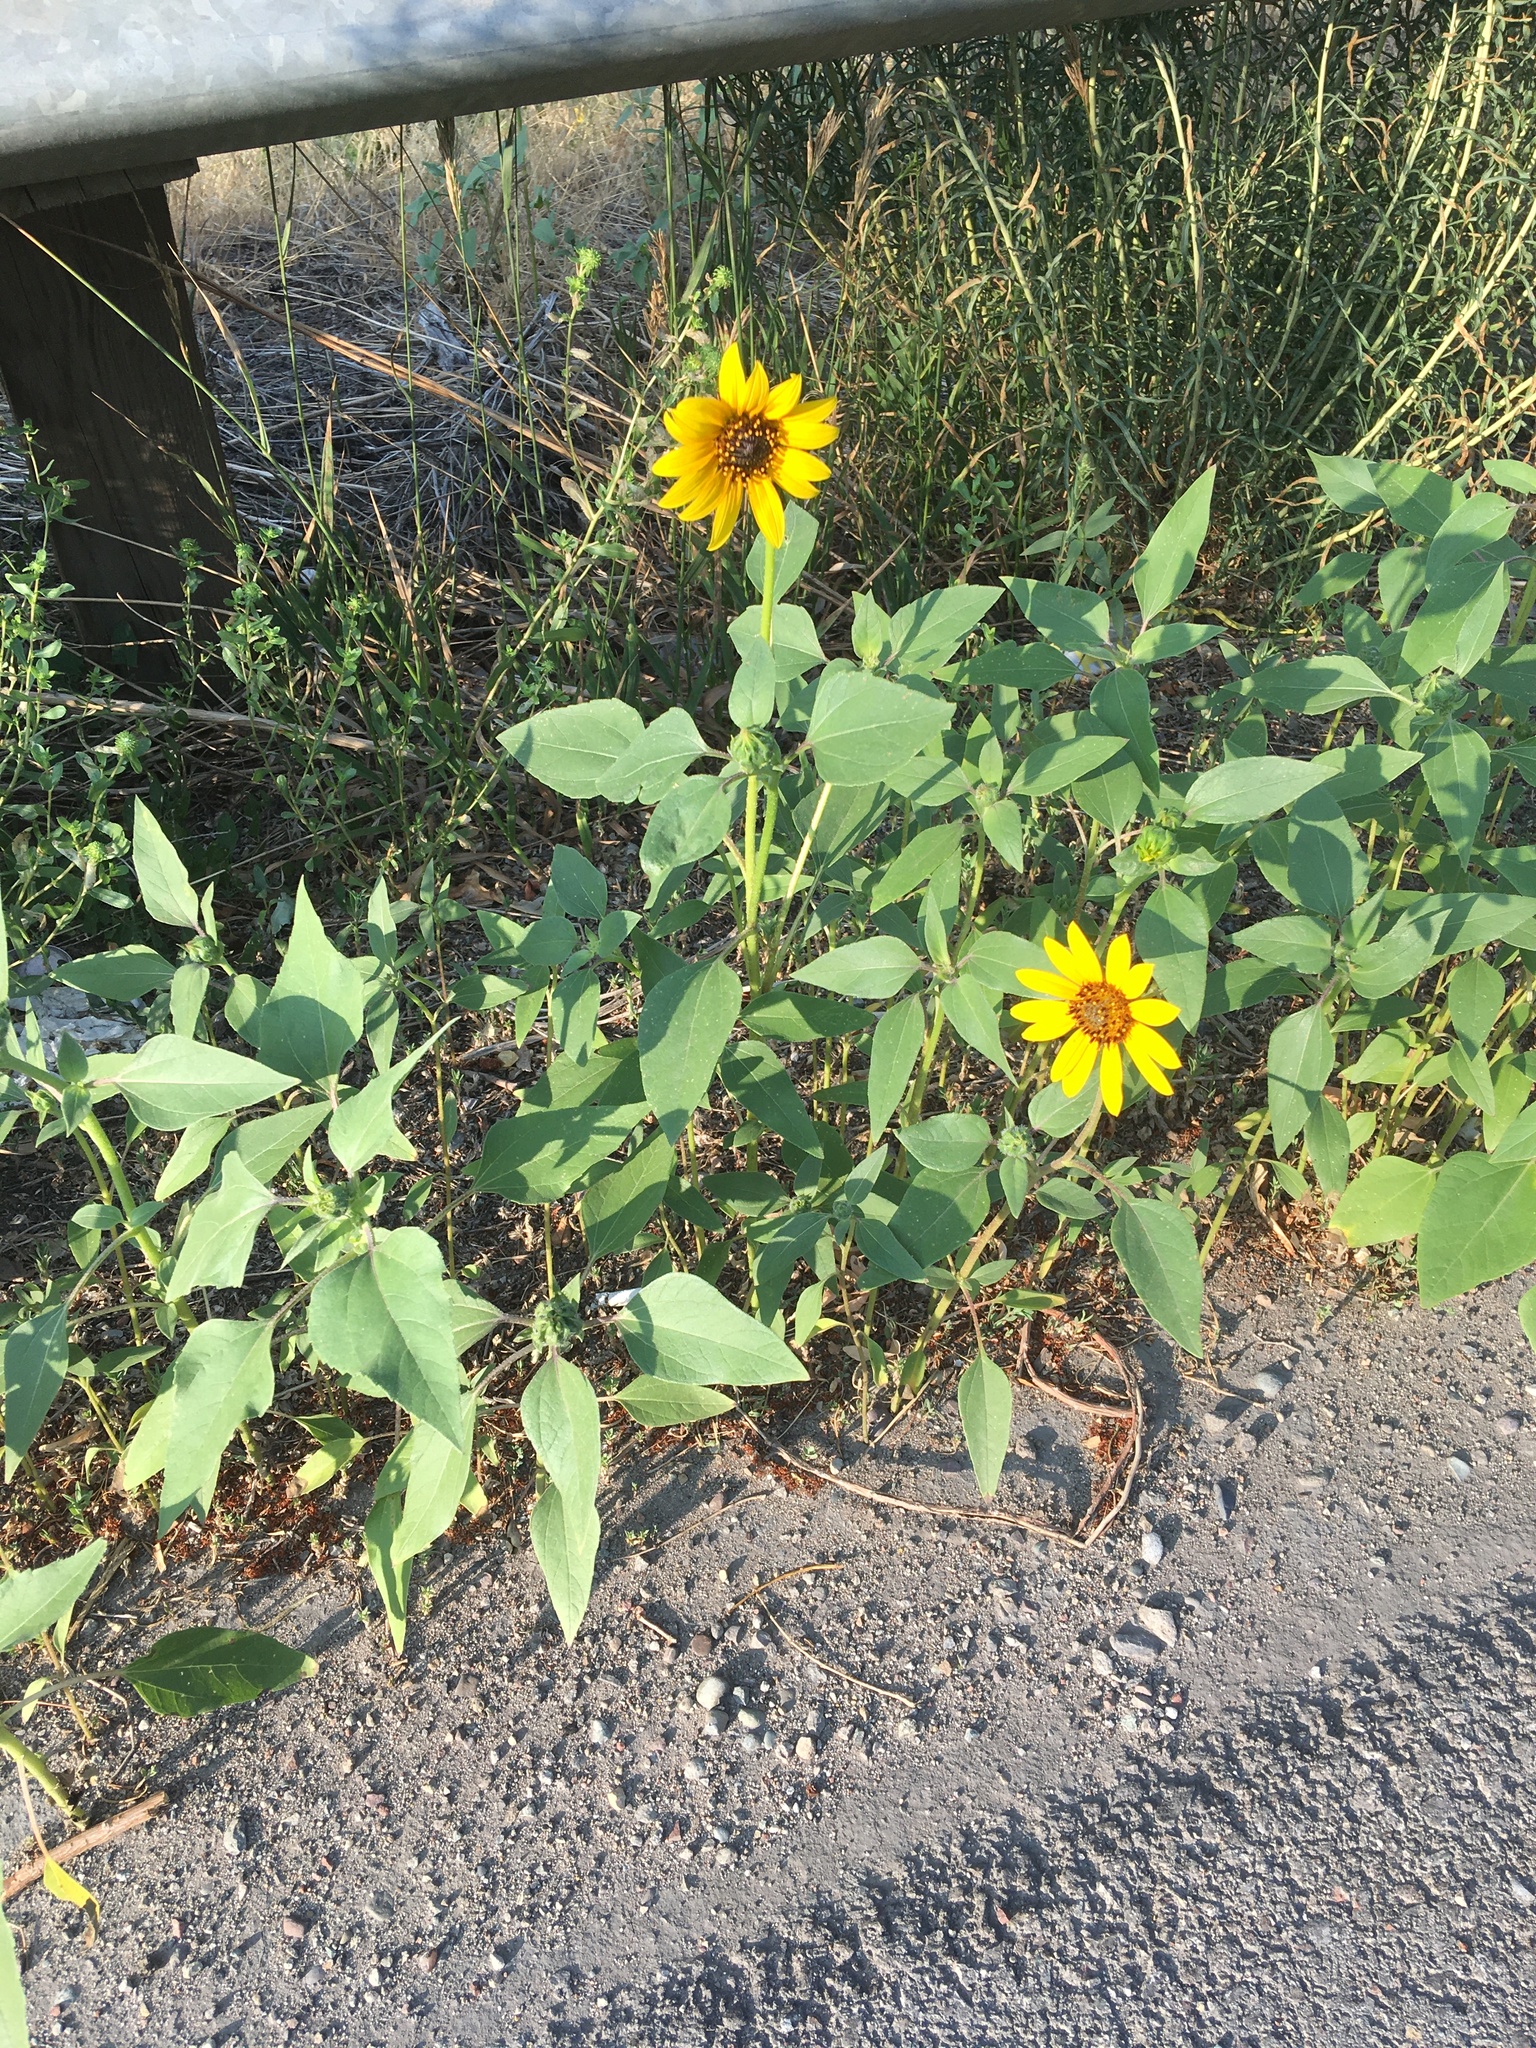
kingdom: Plantae
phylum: Tracheophyta
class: Magnoliopsida
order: Asterales
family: Asteraceae
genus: Helianthus
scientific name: Helianthus annuus
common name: Sunflower
